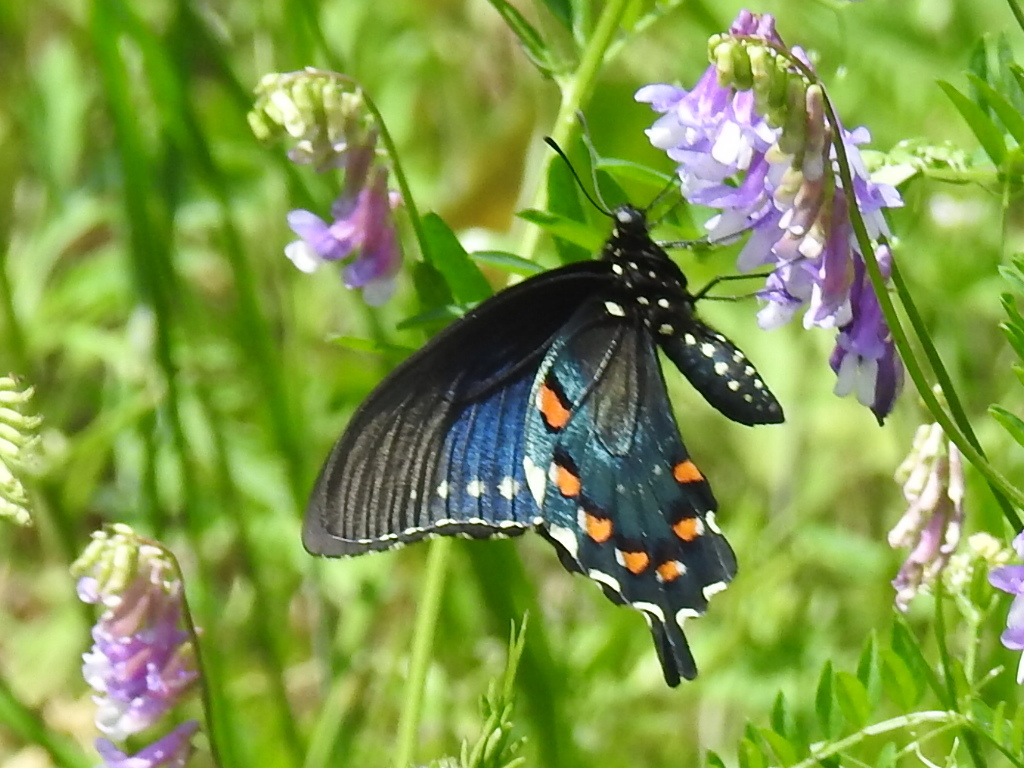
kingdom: Animalia
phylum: Arthropoda
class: Insecta
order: Lepidoptera
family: Papilionidae
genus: Battus
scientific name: Battus philenor
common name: Pipevine swallowtail
